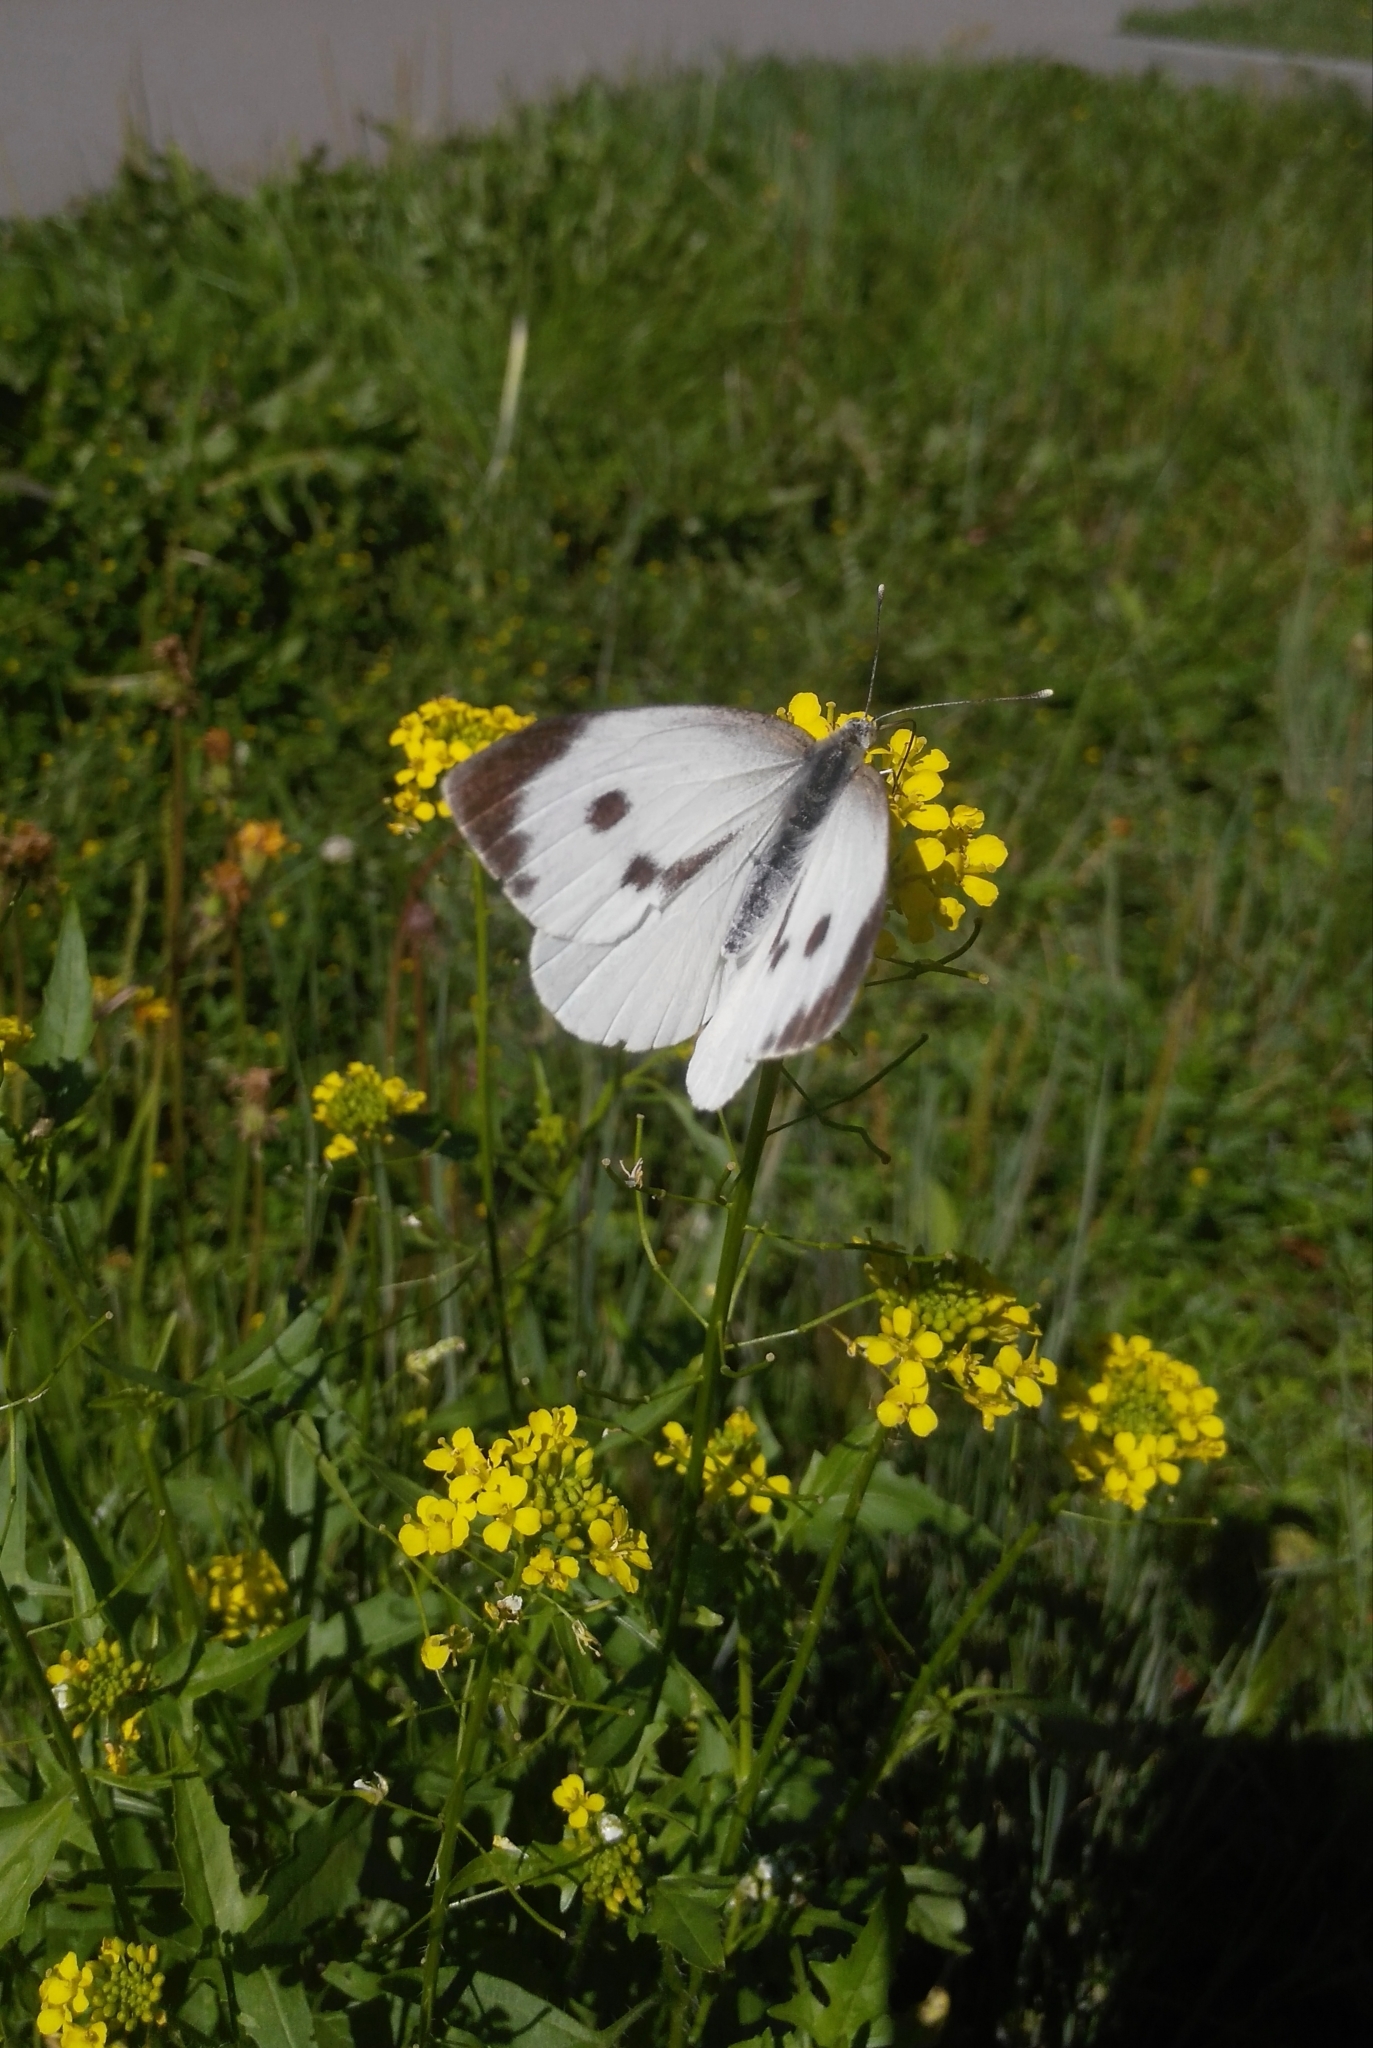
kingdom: Animalia
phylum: Arthropoda
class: Insecta
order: Lepidoptera
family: Pieridae
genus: Pieris
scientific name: Pieris brassicae
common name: Large white
